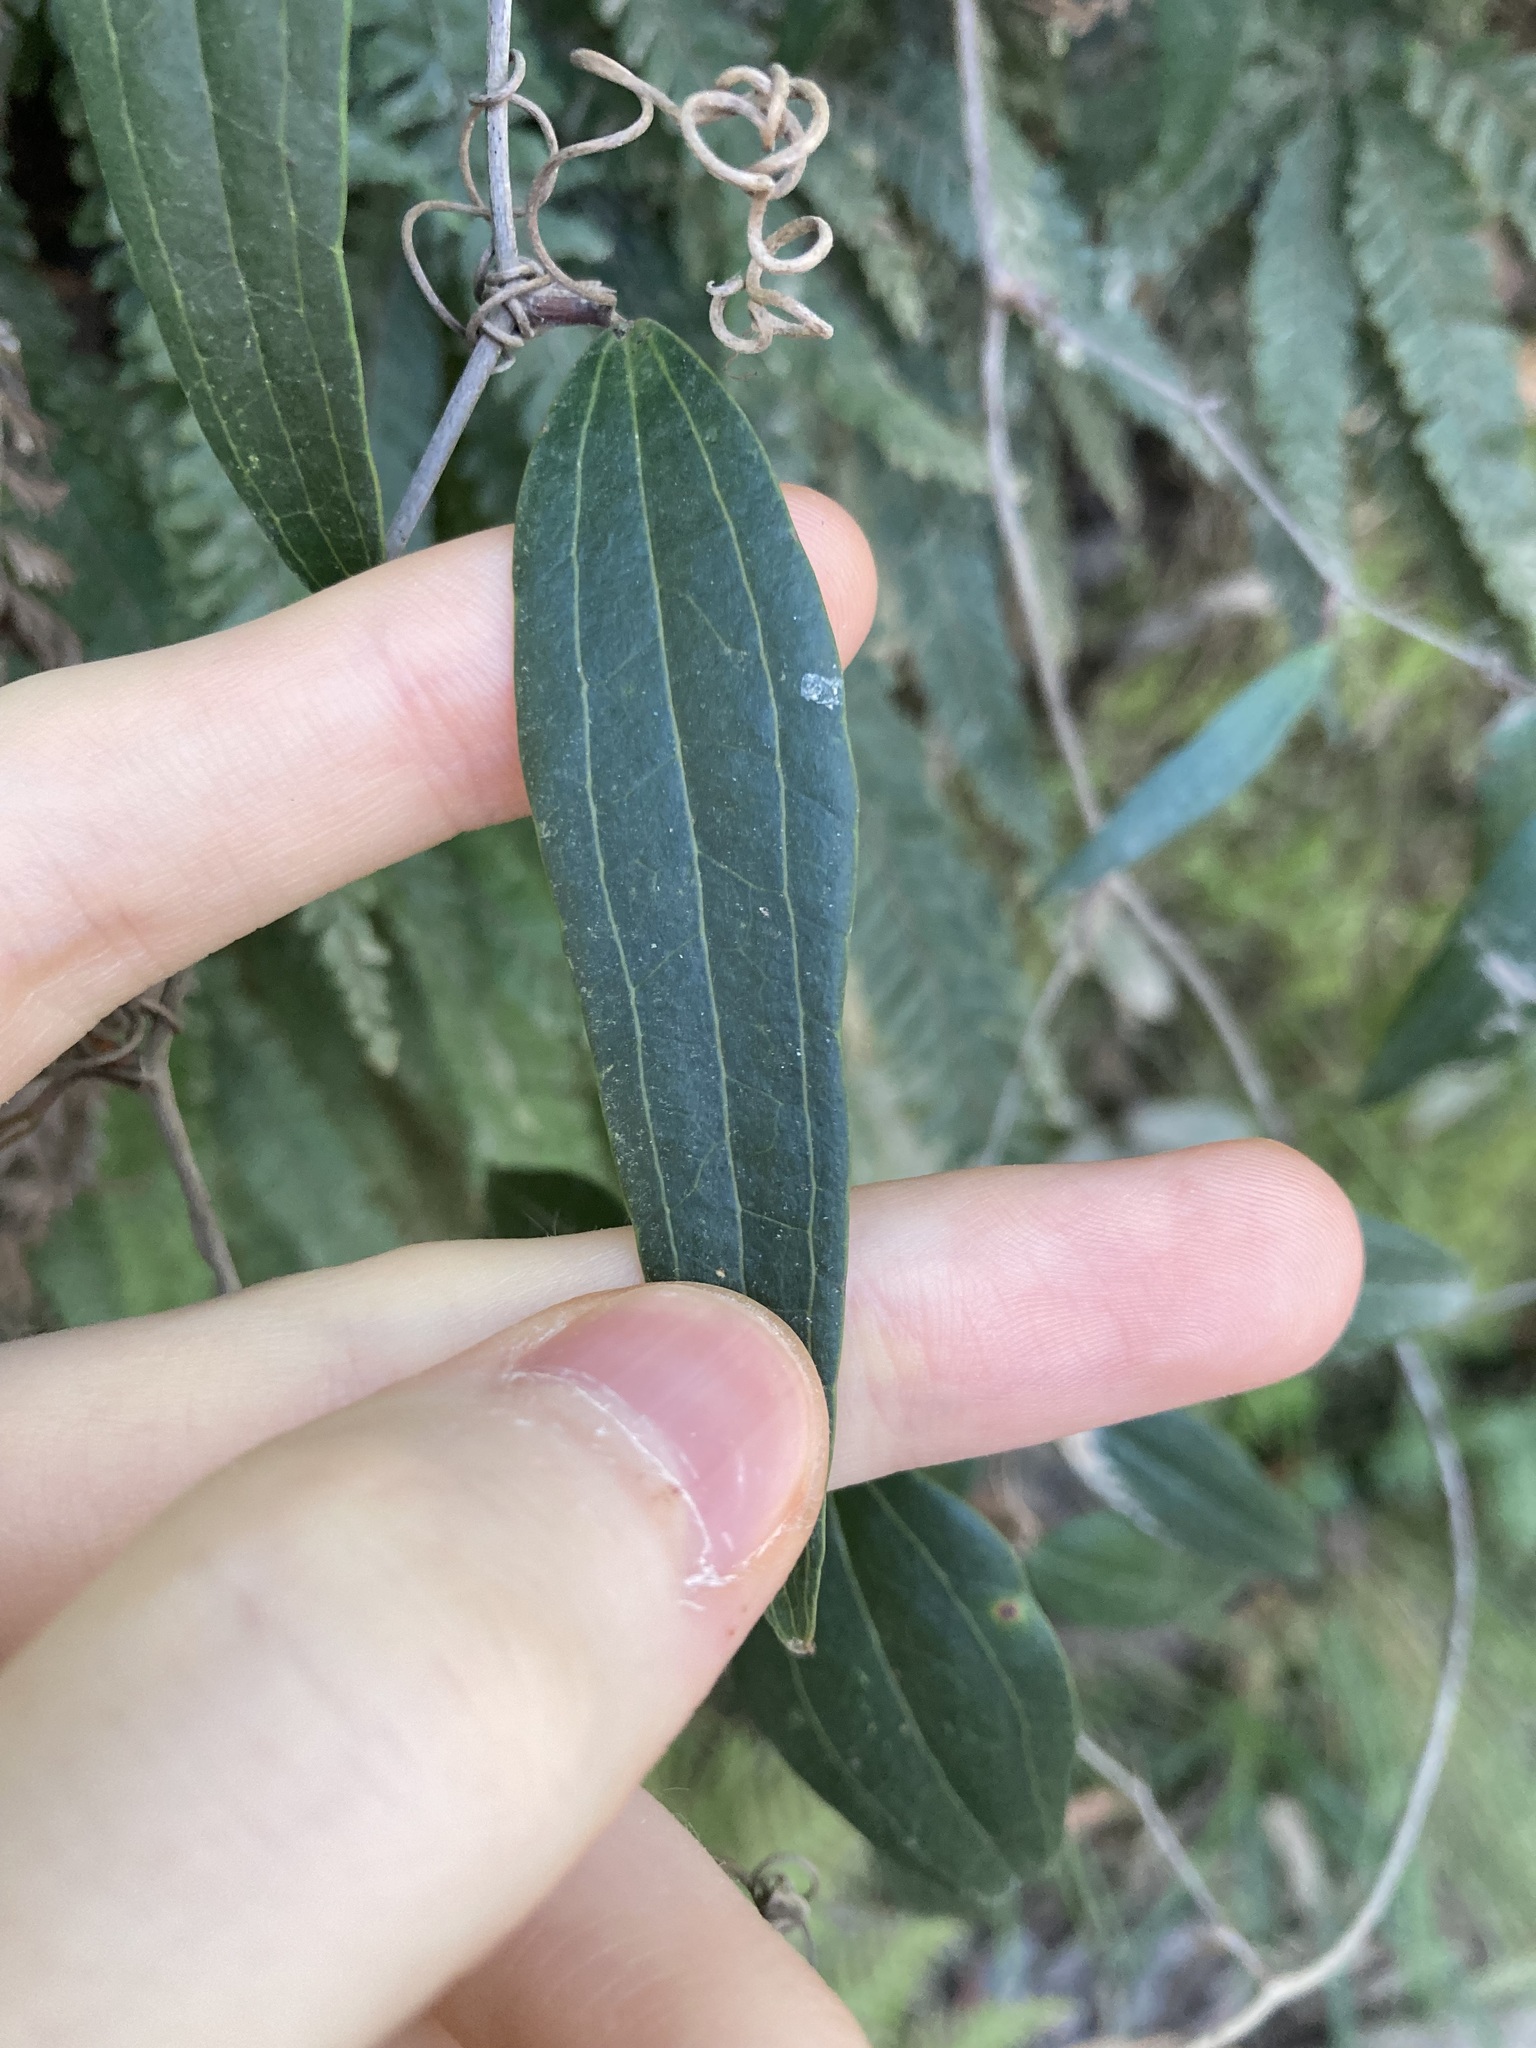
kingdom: Plantae
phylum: Tracheophyta
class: Liliopsida
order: Liliales
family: Smilacaceae
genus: Smilax
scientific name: Smilax glyciphylla
